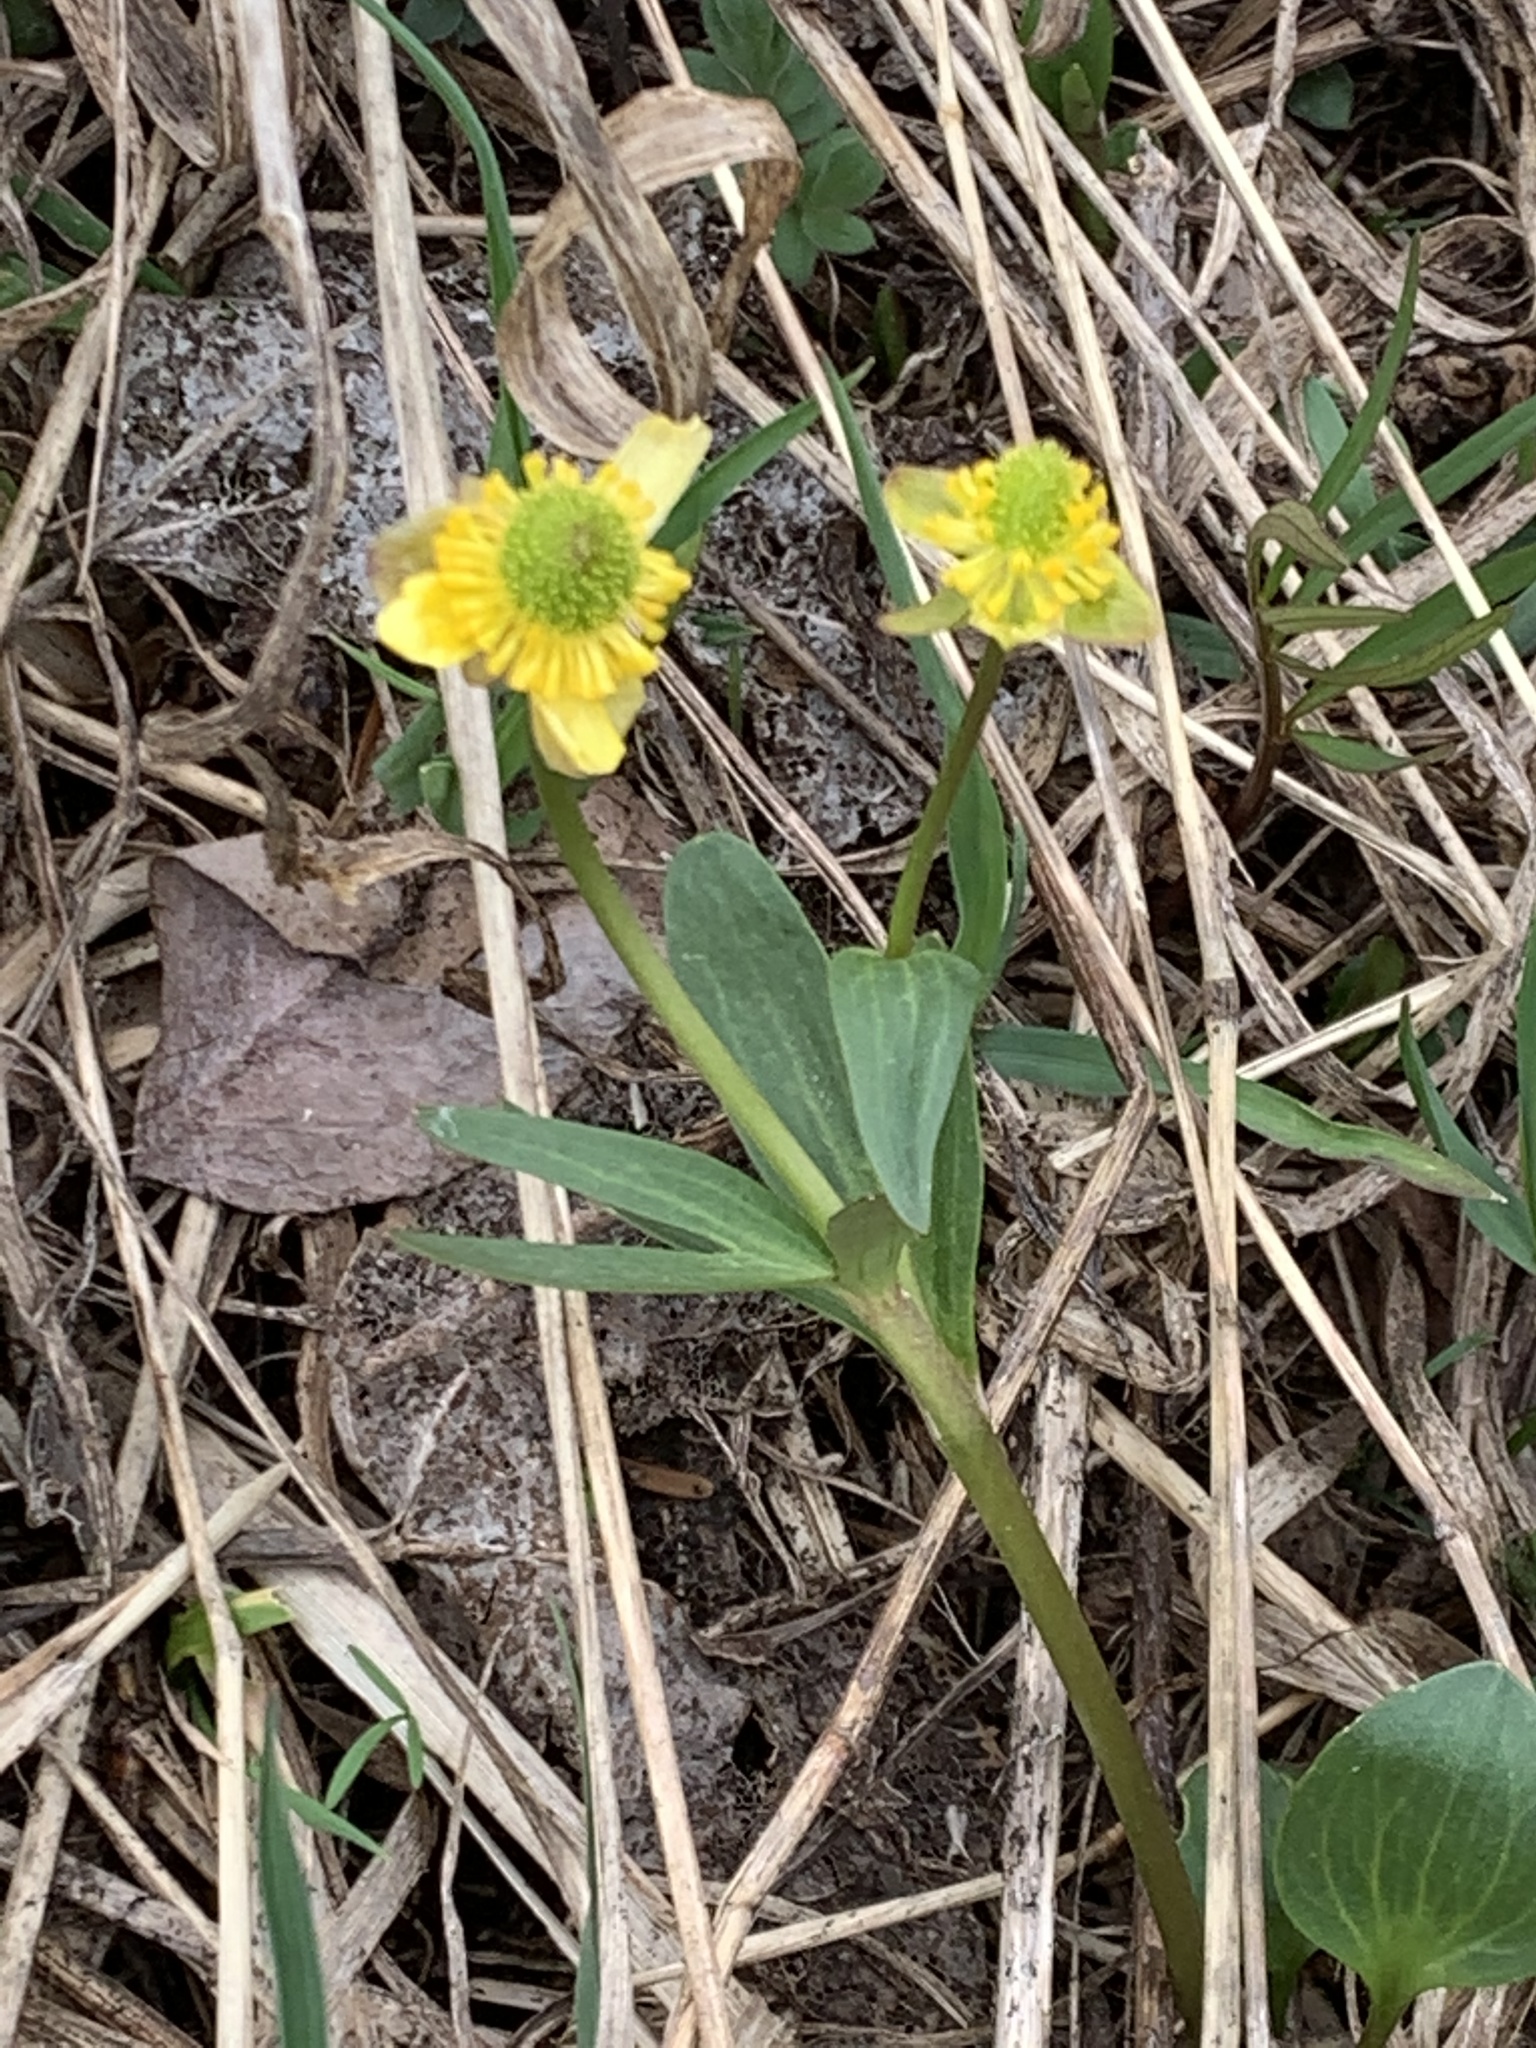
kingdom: Plantae
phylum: Tracheophyta
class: Magnoliopsida
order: Ranunculales
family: Ranunculaceae
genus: Ranunculus
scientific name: Ranunculus glaberrimus
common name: Sagebrush buttercup
